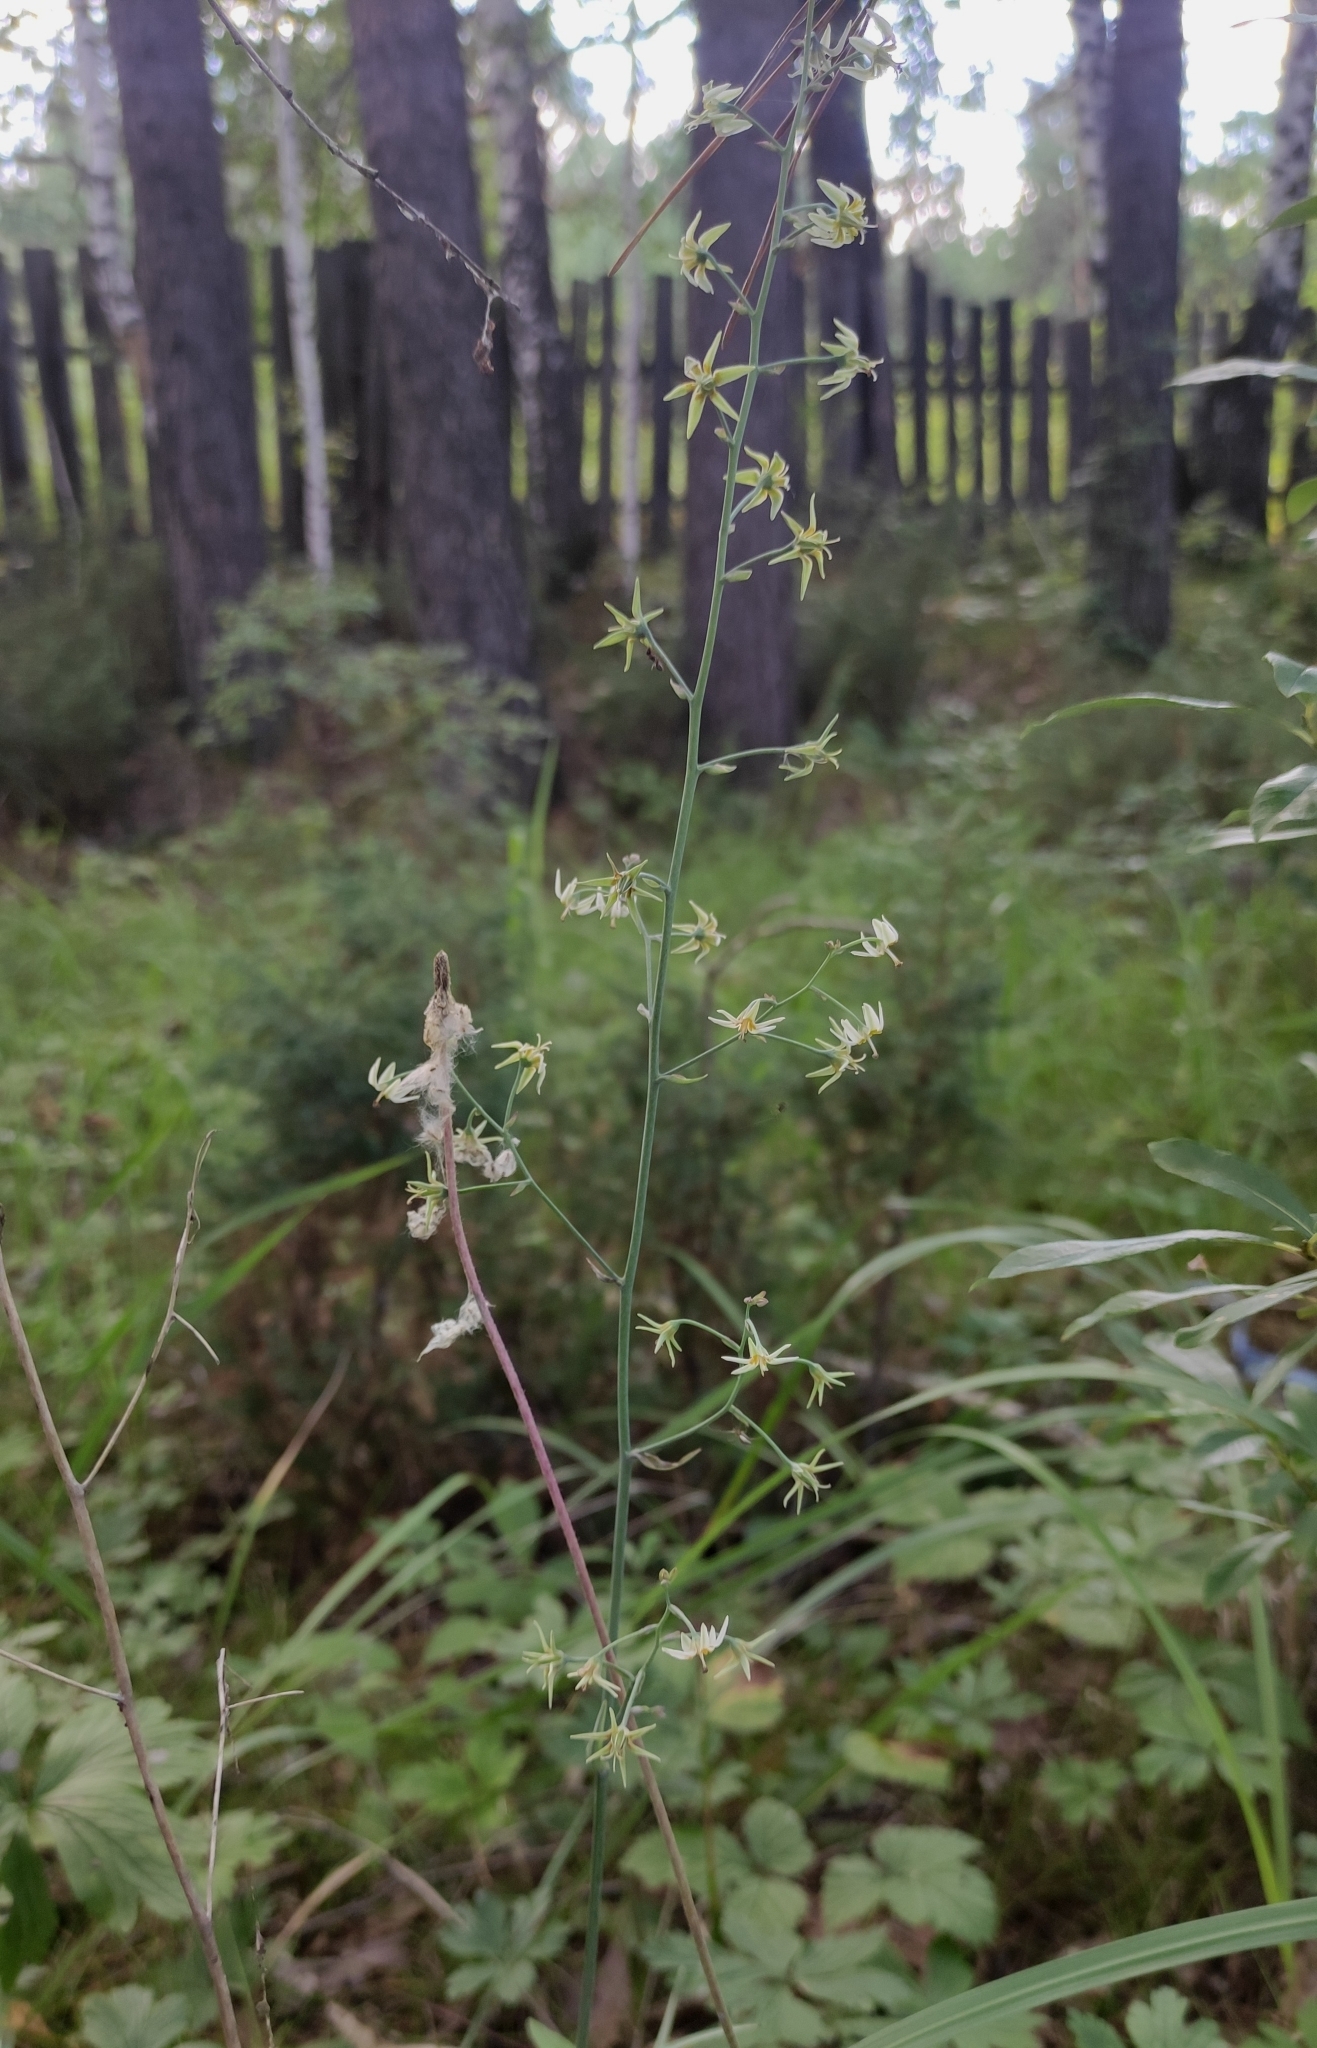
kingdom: Plantae
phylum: Tracheophyta
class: Liliopsida
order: Liliales
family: Melanthiaceae
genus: Anticlea
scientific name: Anticlea sibirica
